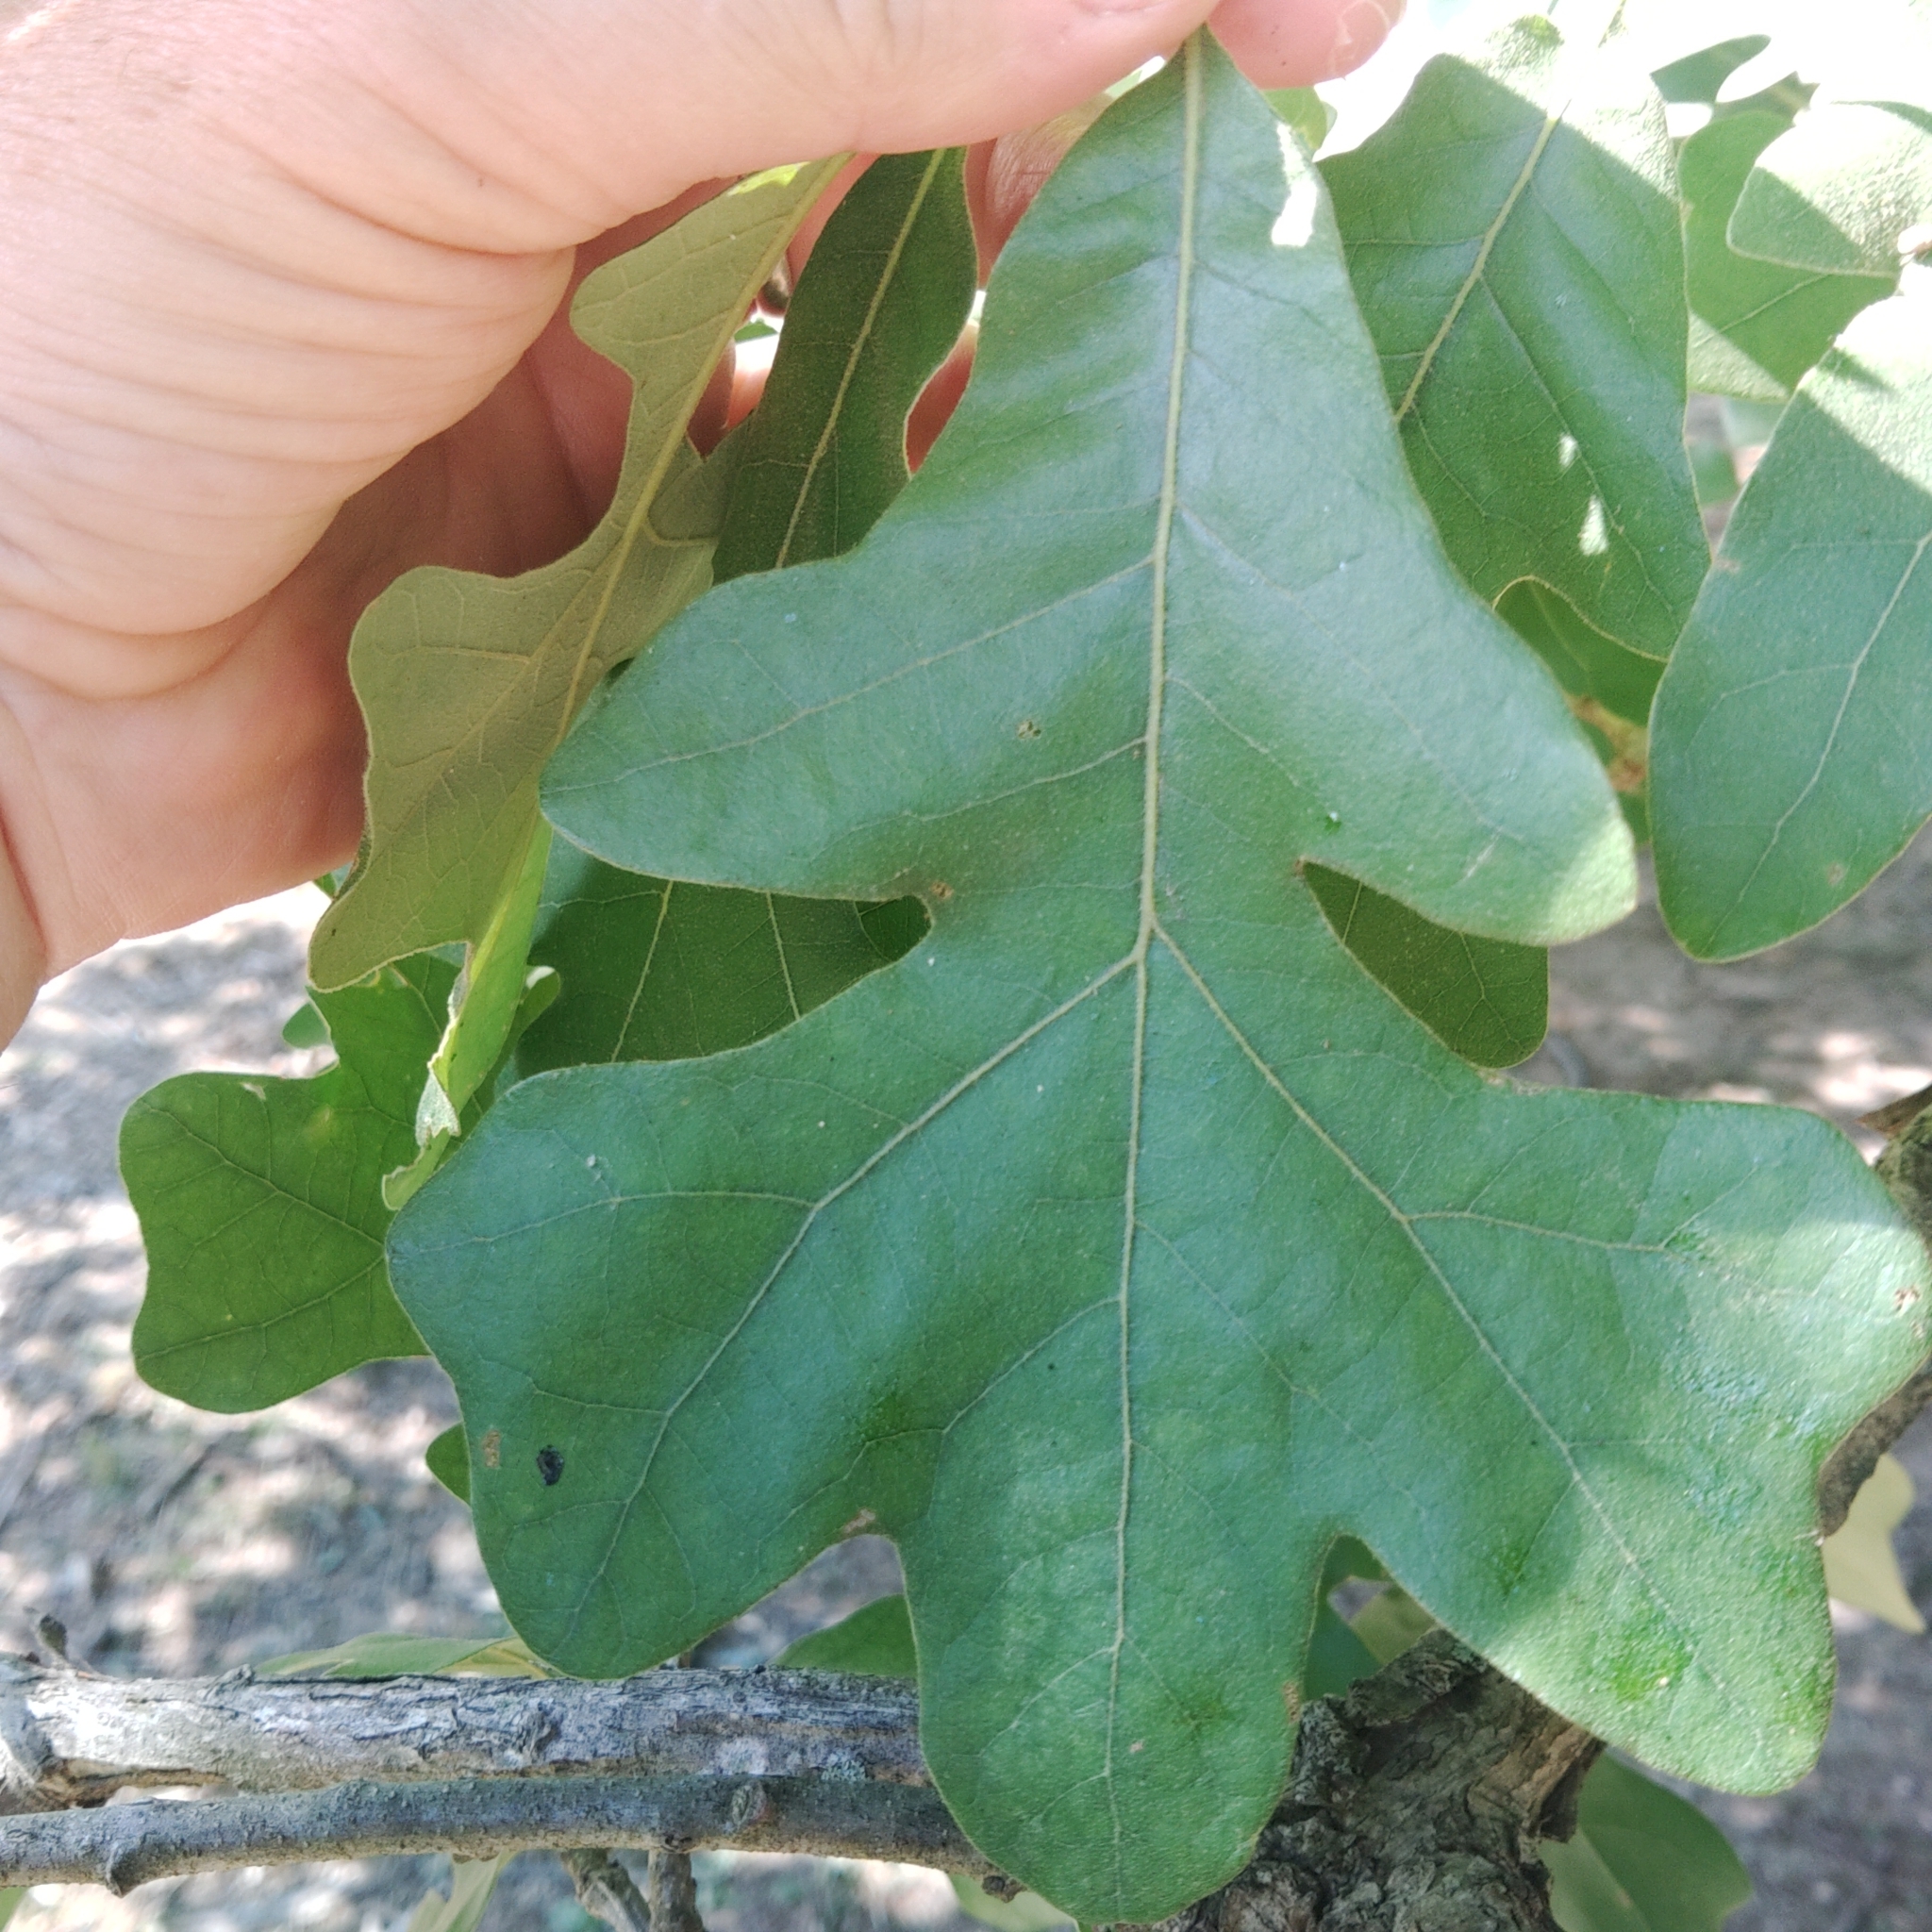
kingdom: Plantae
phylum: Tracheophyta
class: Magnoliopsida
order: Fagales
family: Fagaceae
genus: Quercus
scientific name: Quercus stellata
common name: Post oak
